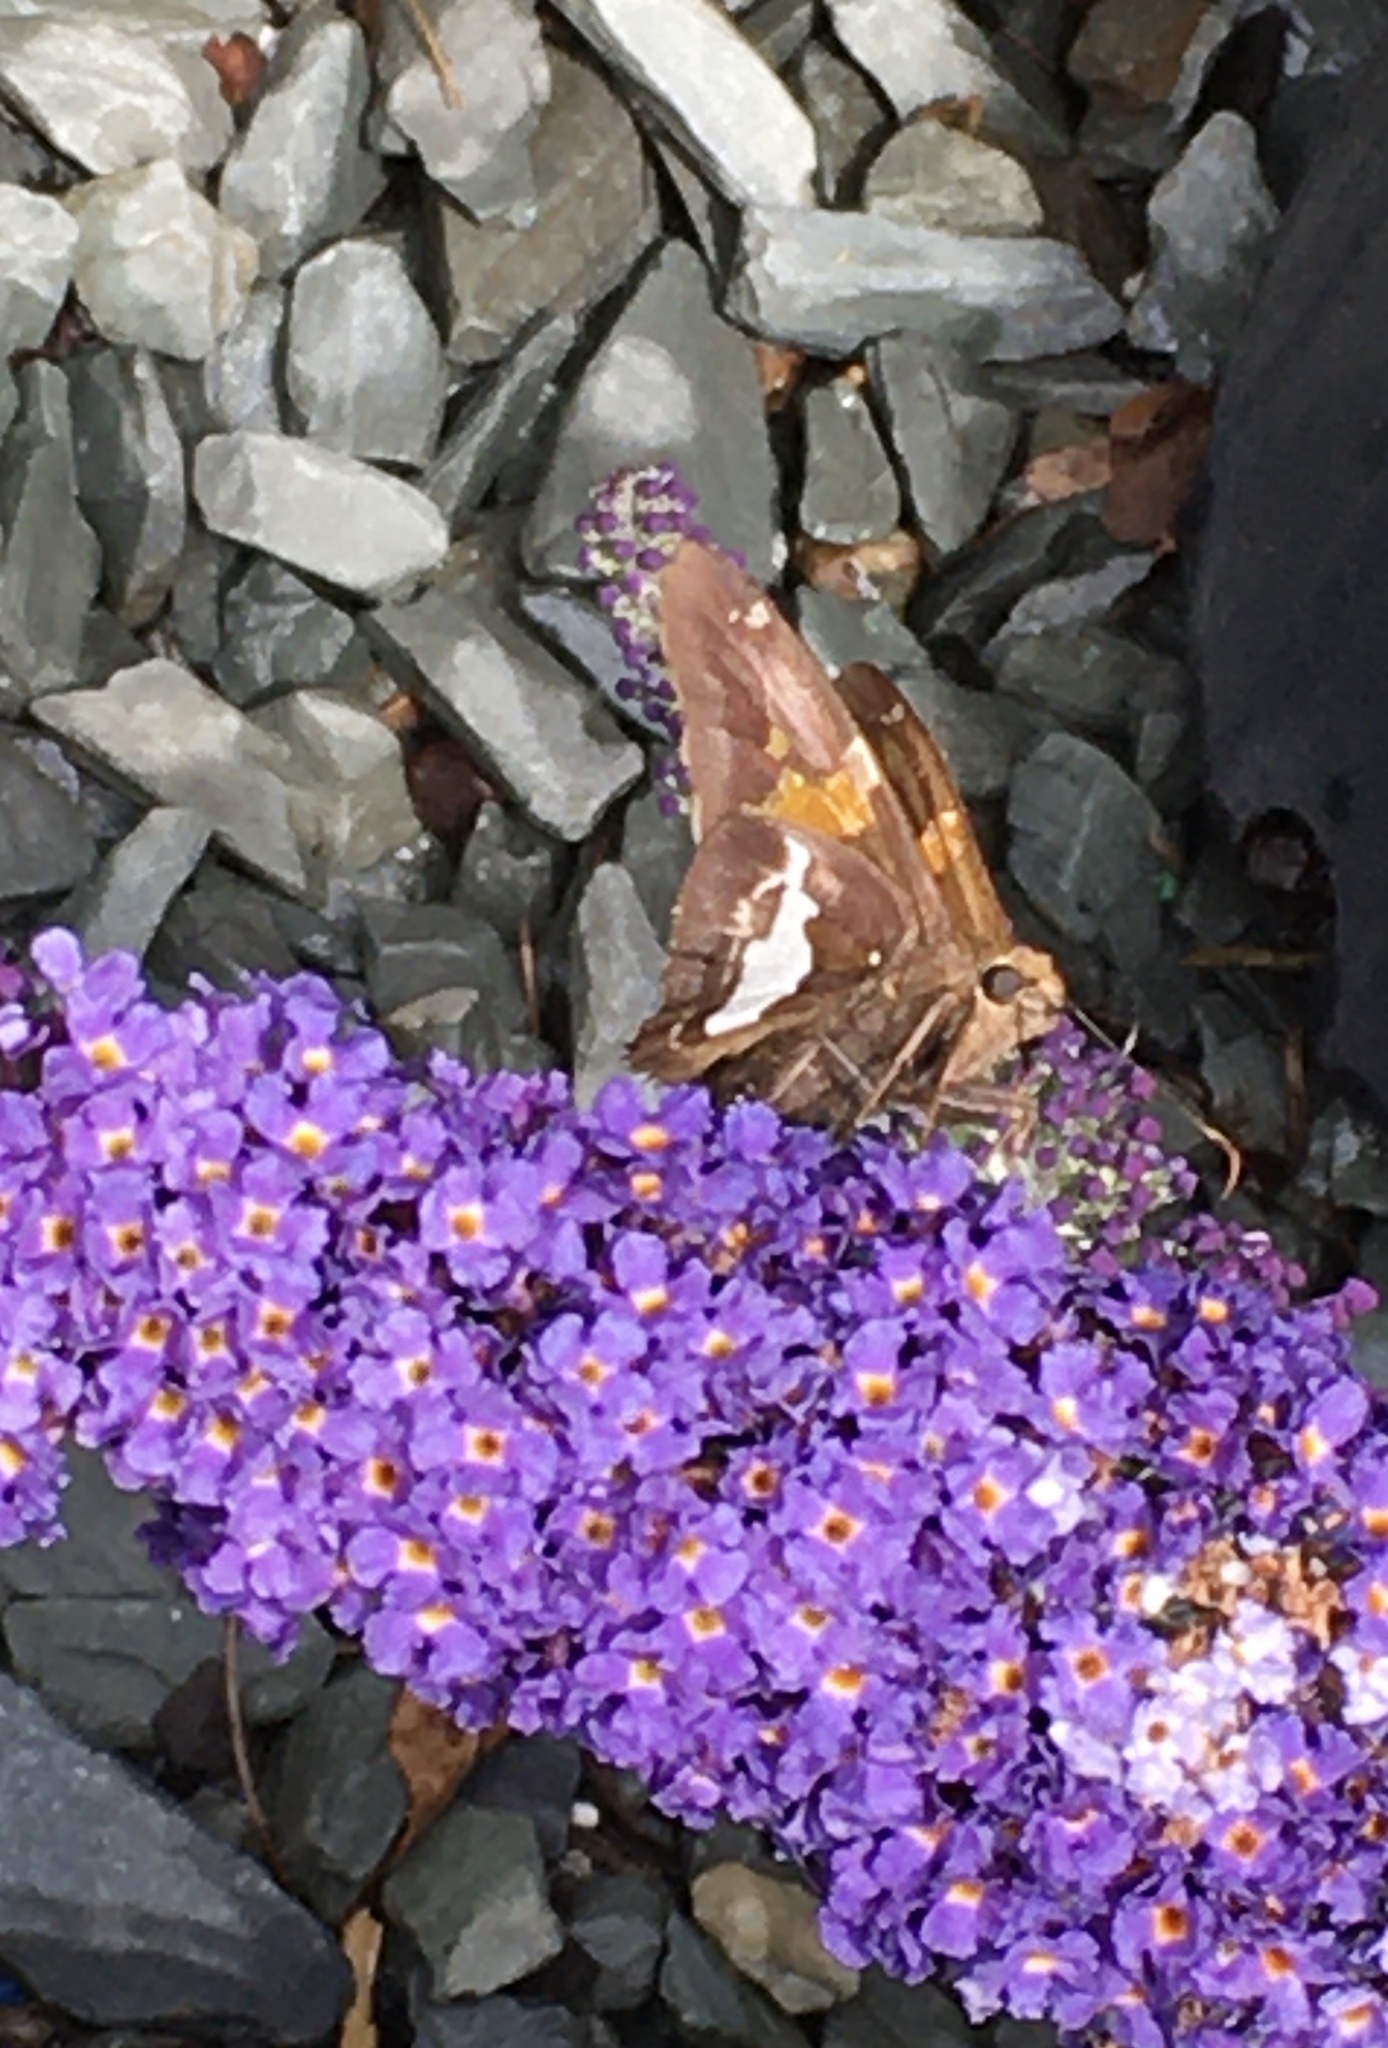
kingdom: Animalia
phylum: Arthropoda
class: Insecta
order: Lepidoptera
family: Hesperiidae
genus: Epargyreus
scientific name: Epargyreus clarus
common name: Silver-spotted skipper
